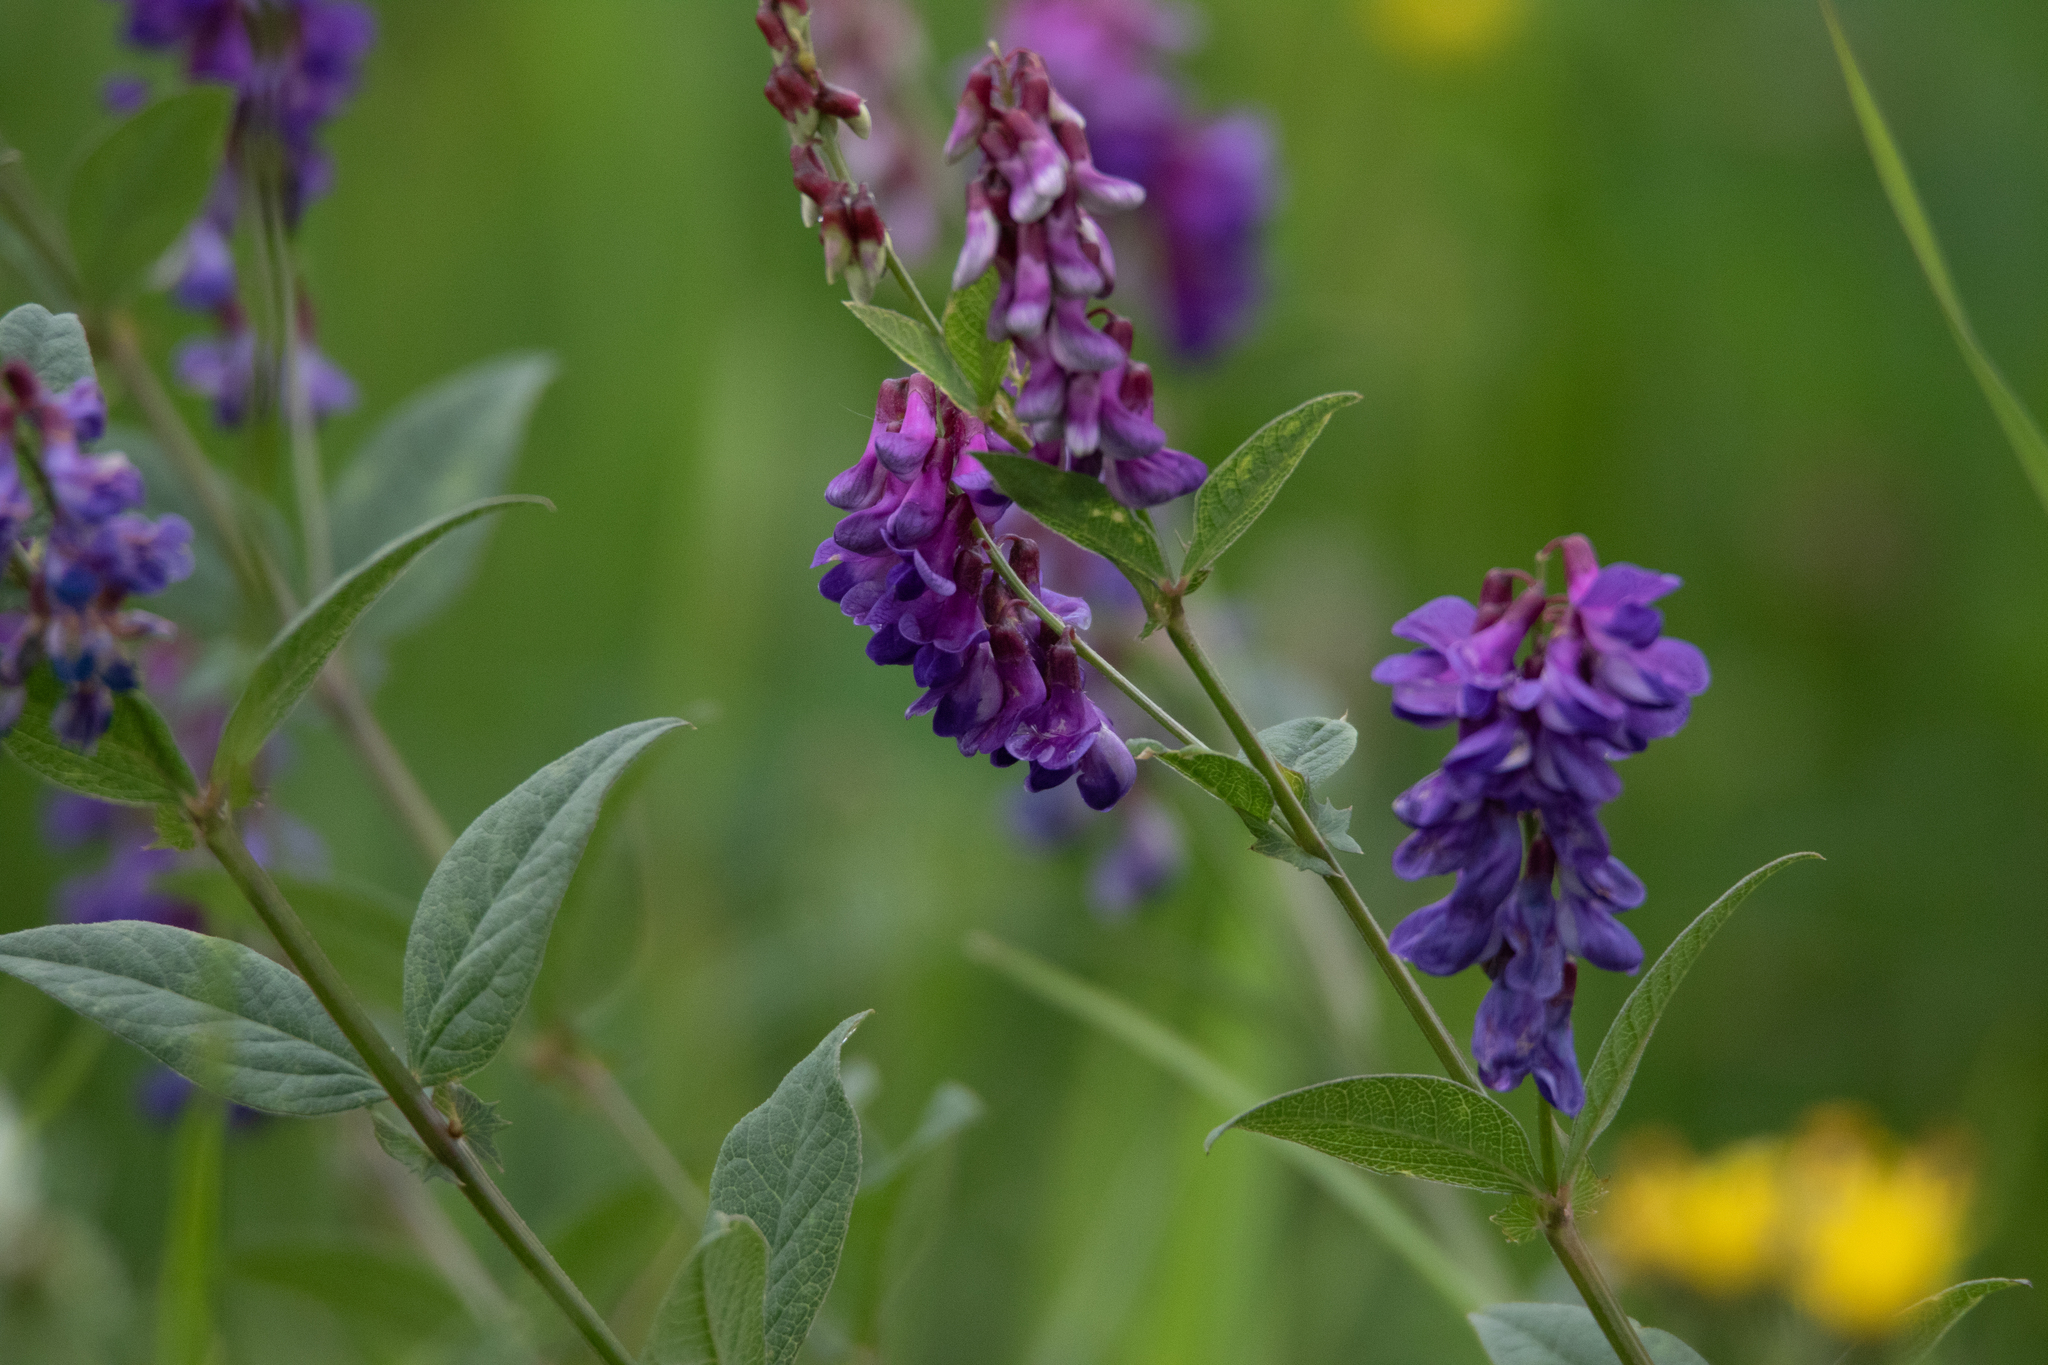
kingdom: Plantae
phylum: Tracheophyta
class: Magnoliopsida
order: Fabales
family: Fabaceae
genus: Vicia
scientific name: Vicia unijuga
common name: Two-leaf vetch
